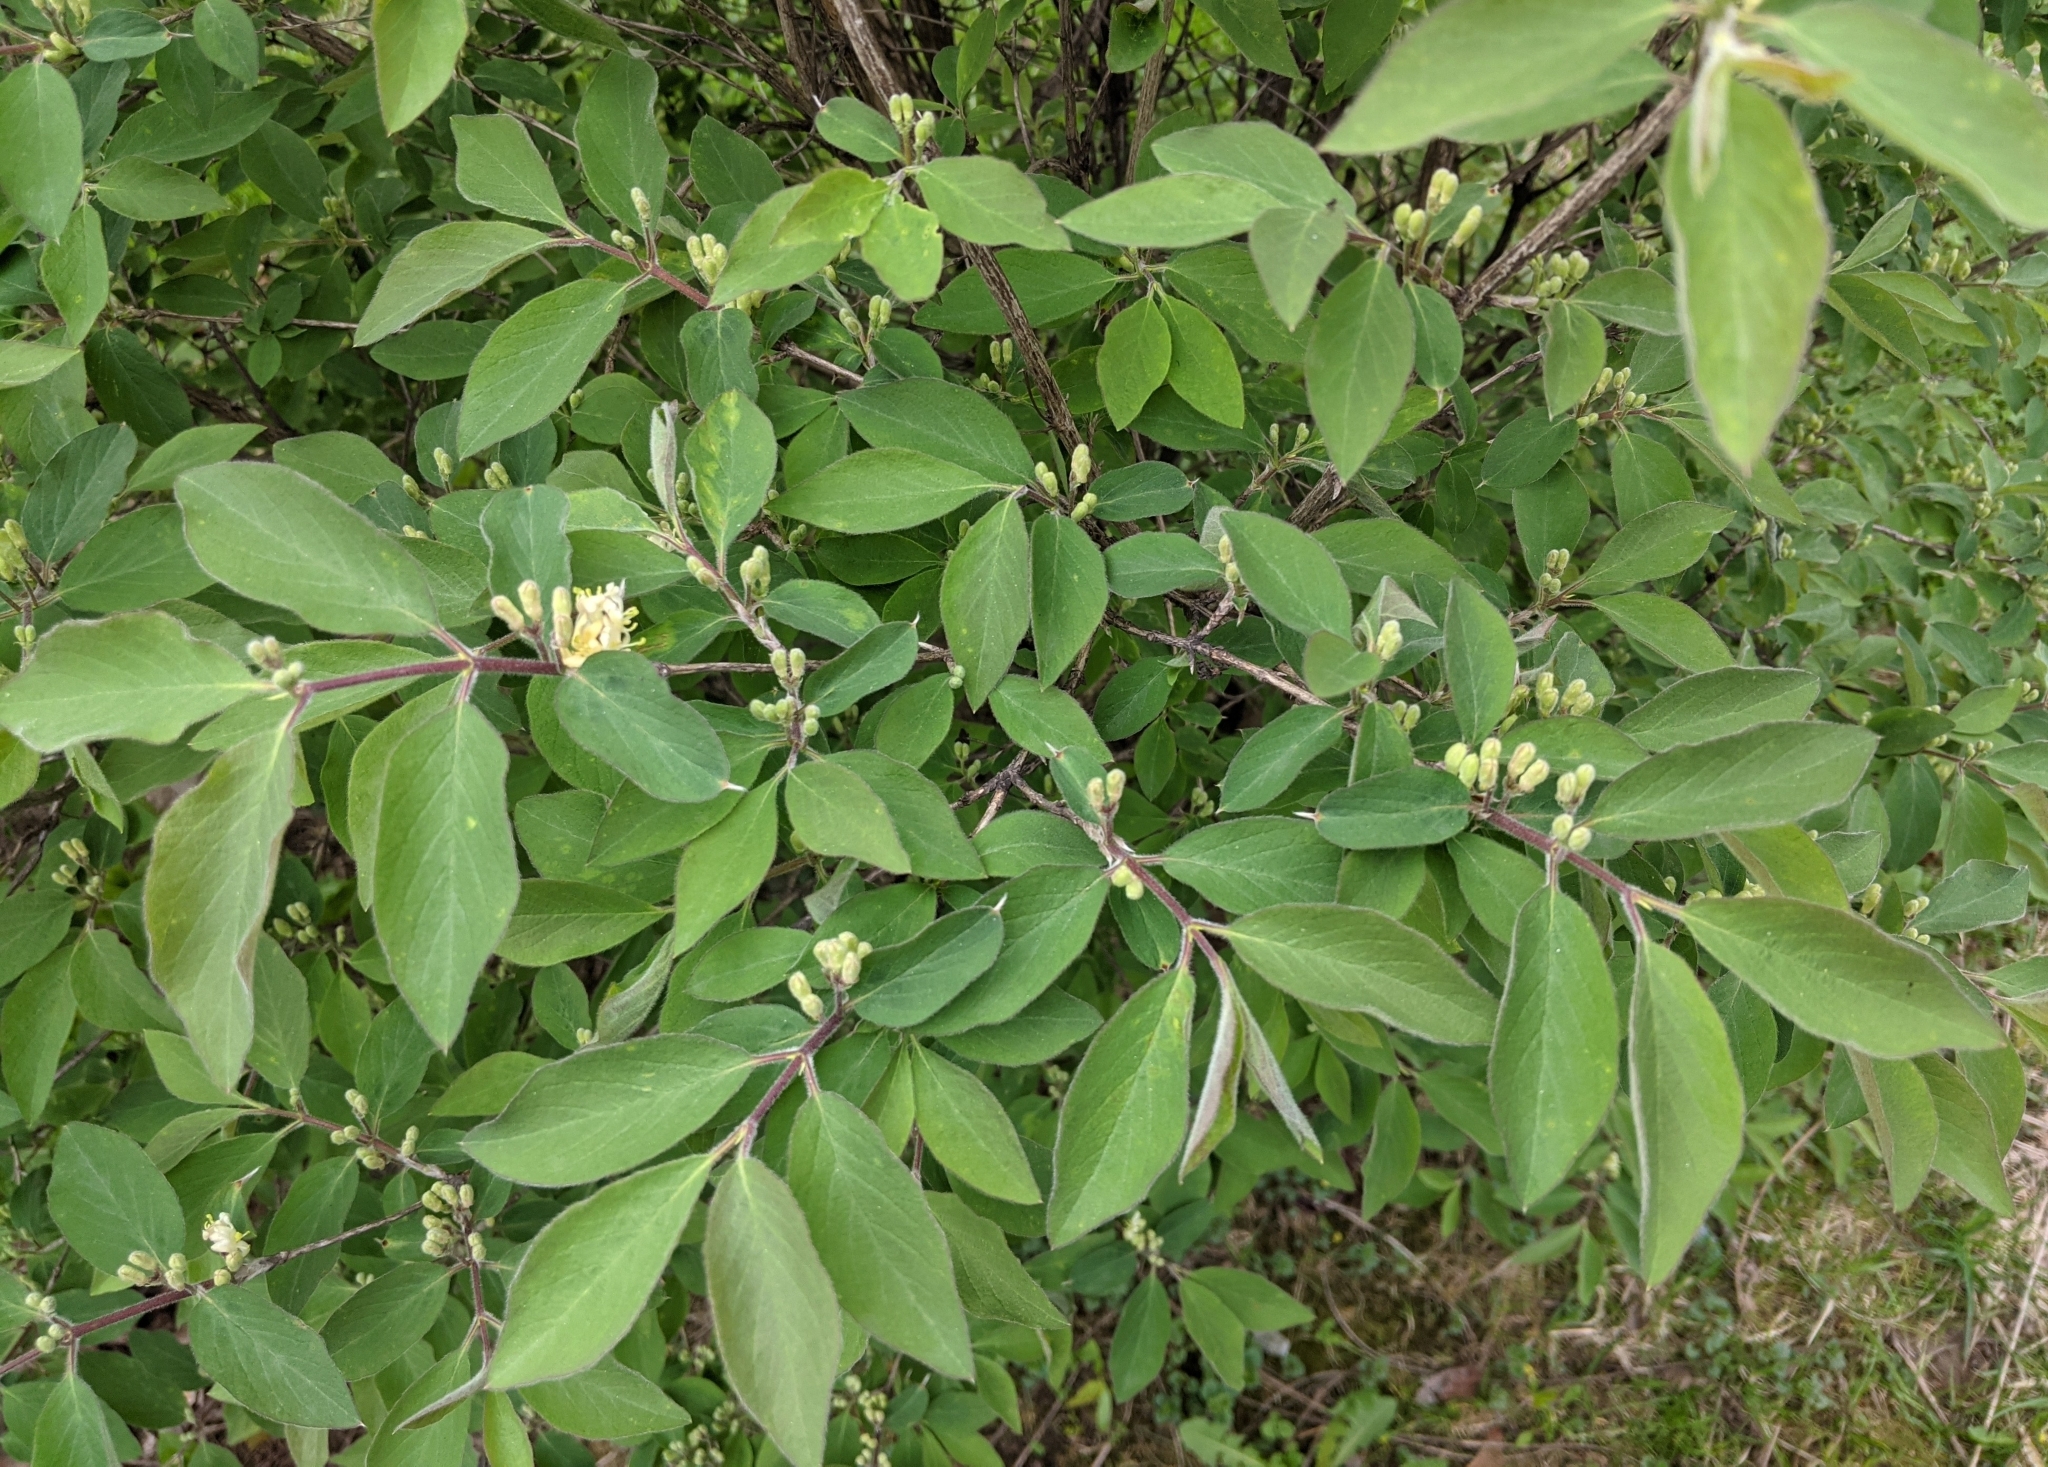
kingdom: Plantae
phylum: Tracheophyta
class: Magnoliopsida
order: Dipsacales
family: Caprifoliaceae
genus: Lonicera
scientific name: Lonicera xylosteum
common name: Fly honeysuckle
